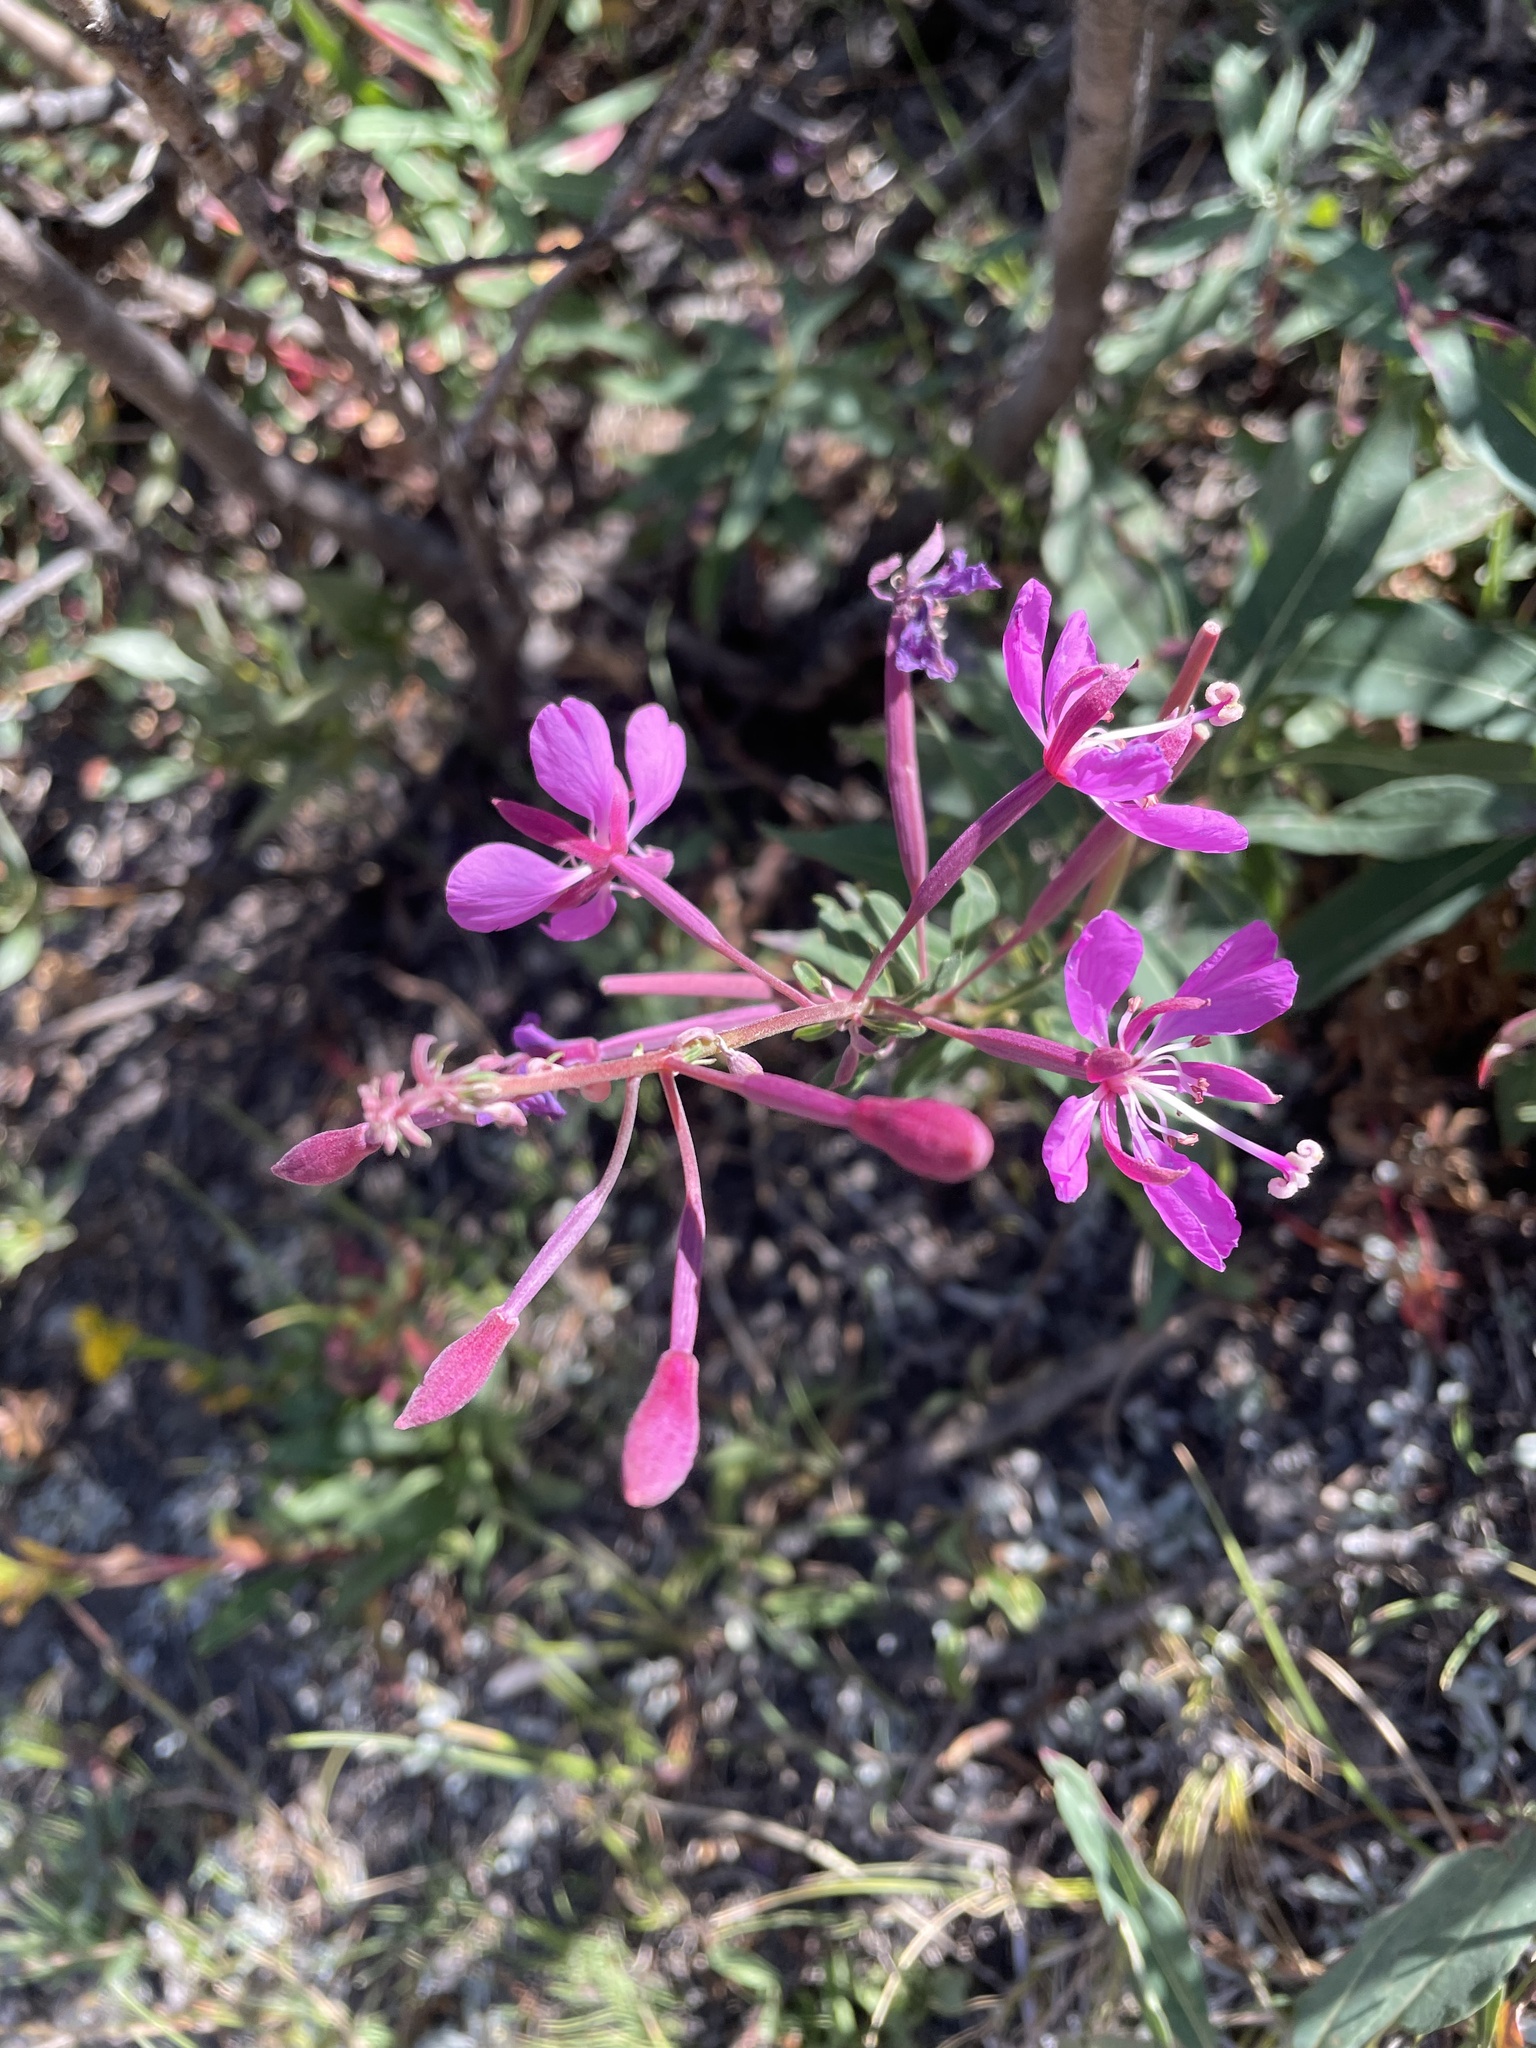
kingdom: Plantae
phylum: Tracheophyta
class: Magnoliopsida
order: Myrtales
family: Onagraceae
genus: Chamaenerion
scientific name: Chamaenerion angustifolium
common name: Fireweed
